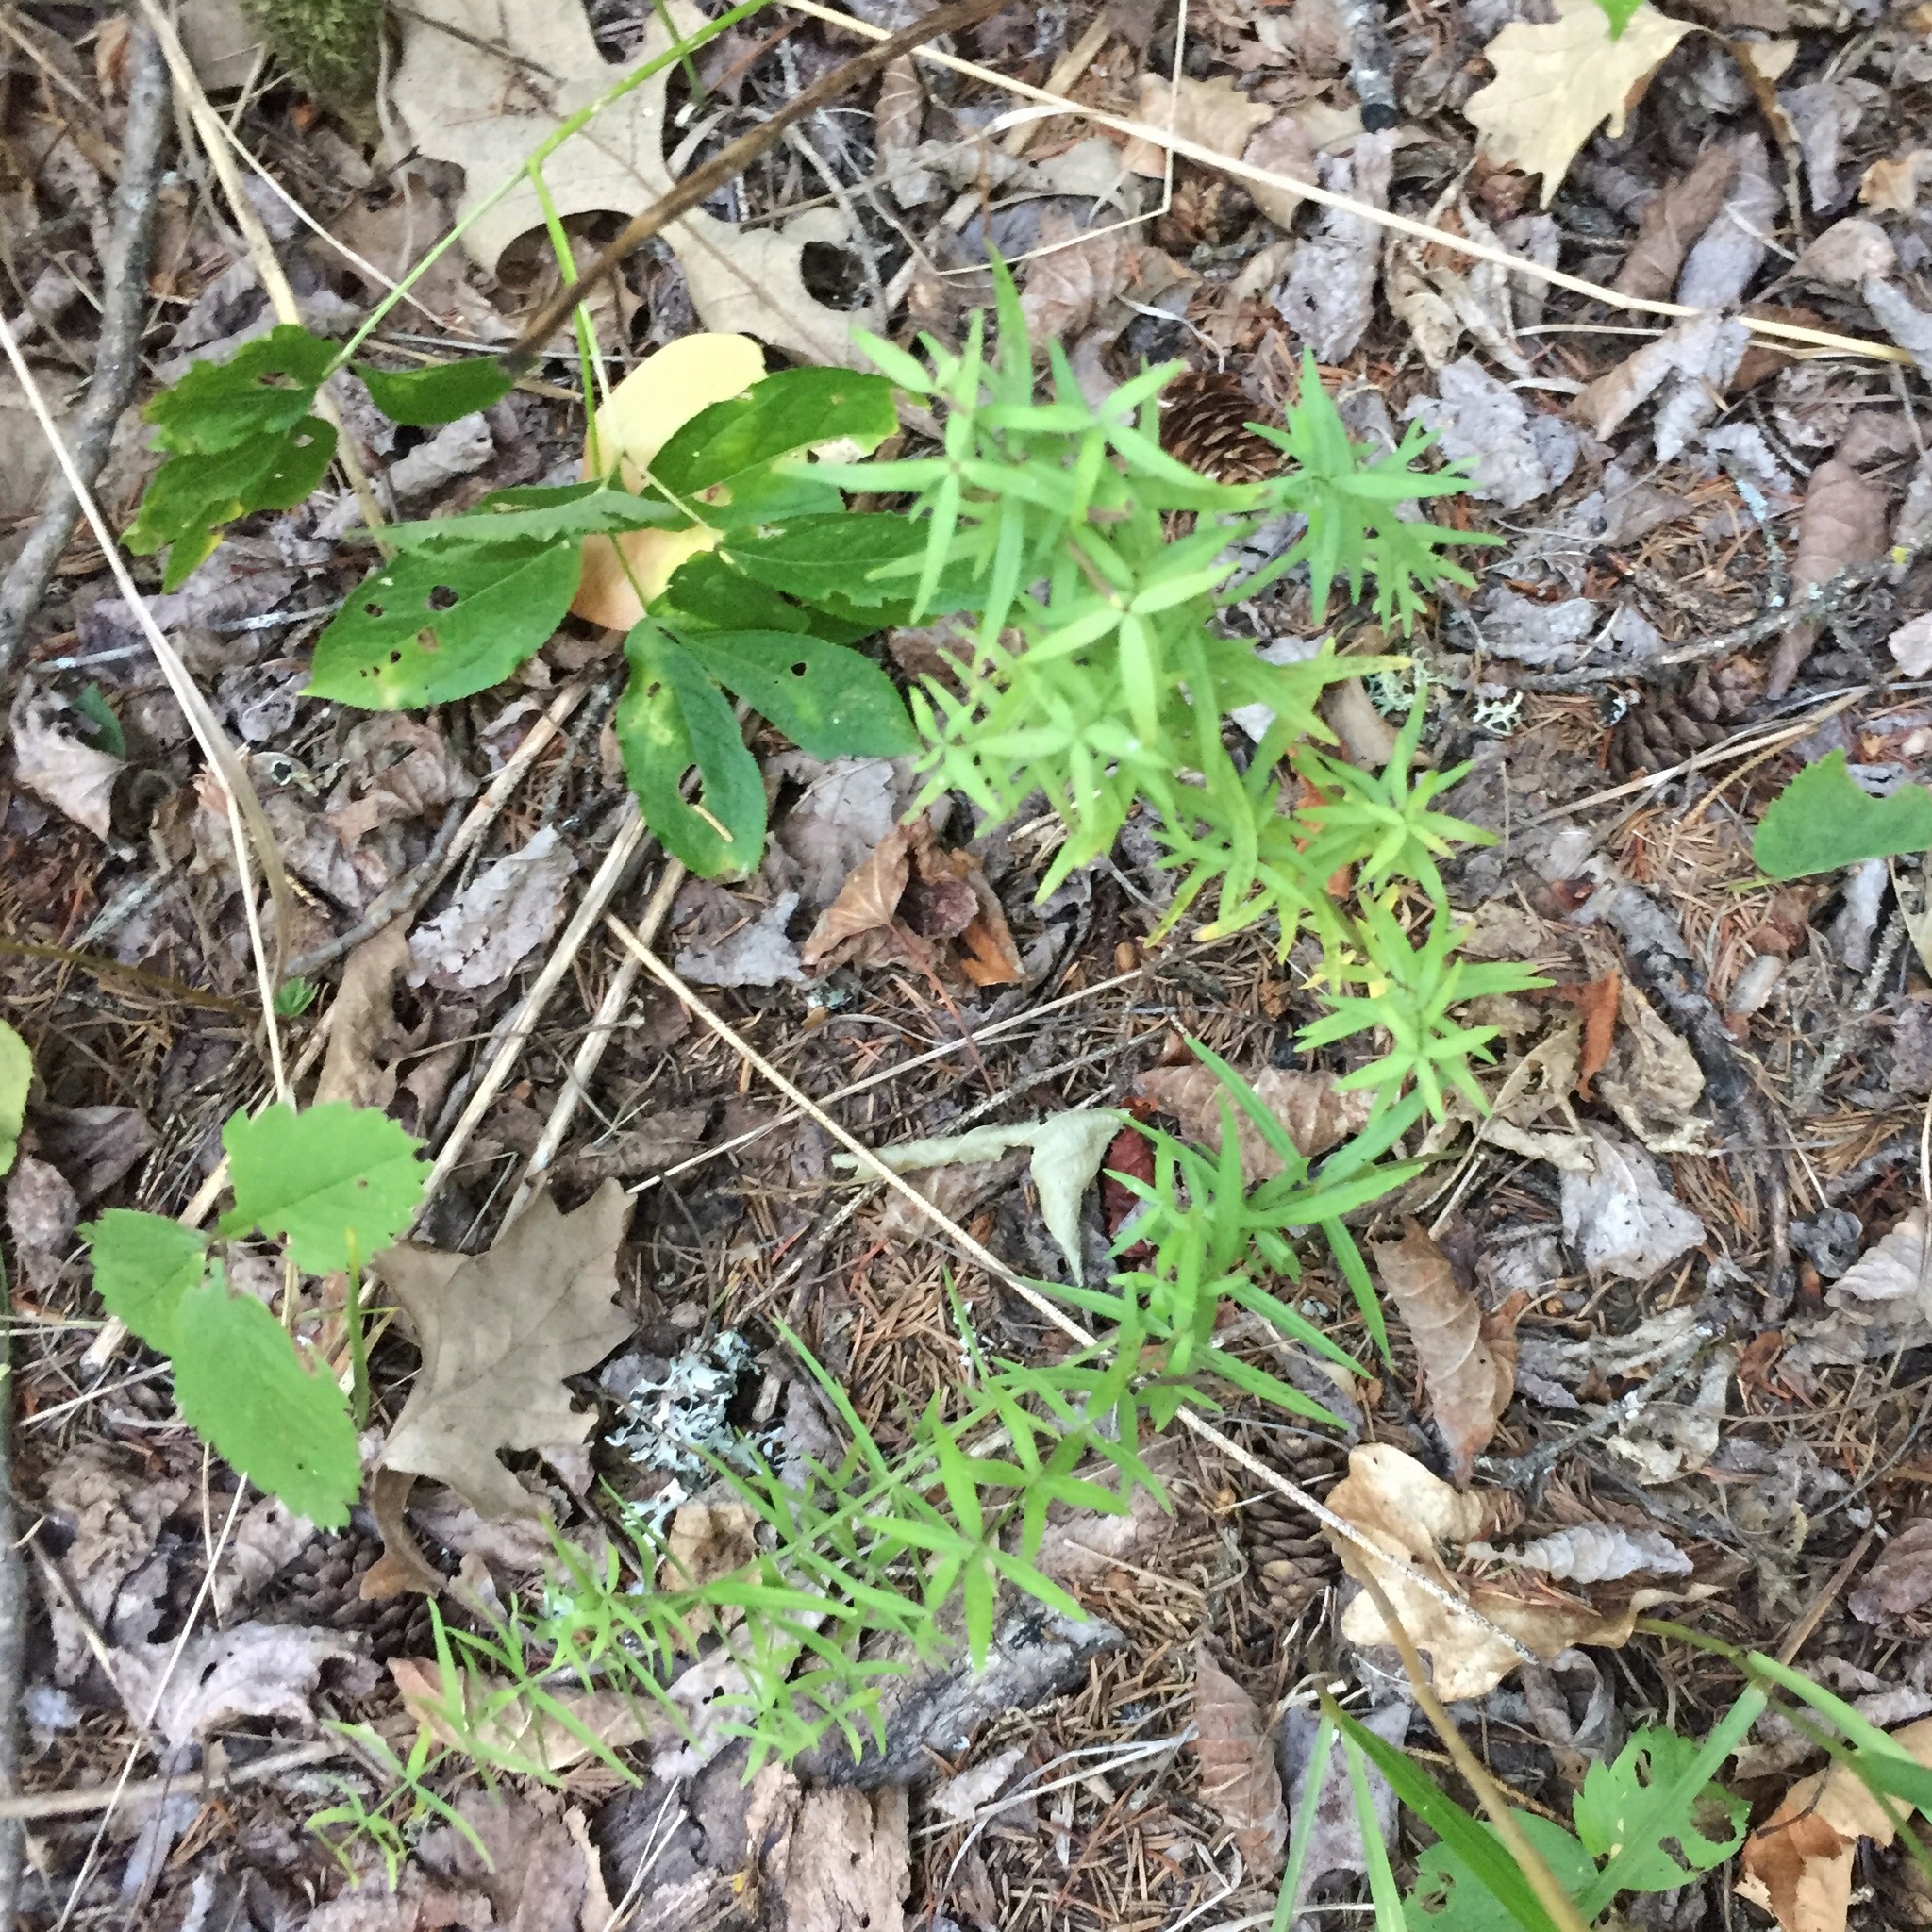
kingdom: Plantae
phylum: Tracheophyta
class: Magnoliopsida
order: Gentianales
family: Rubiaceae
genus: Galium
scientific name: Galium boreale
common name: Northern bedstraw
